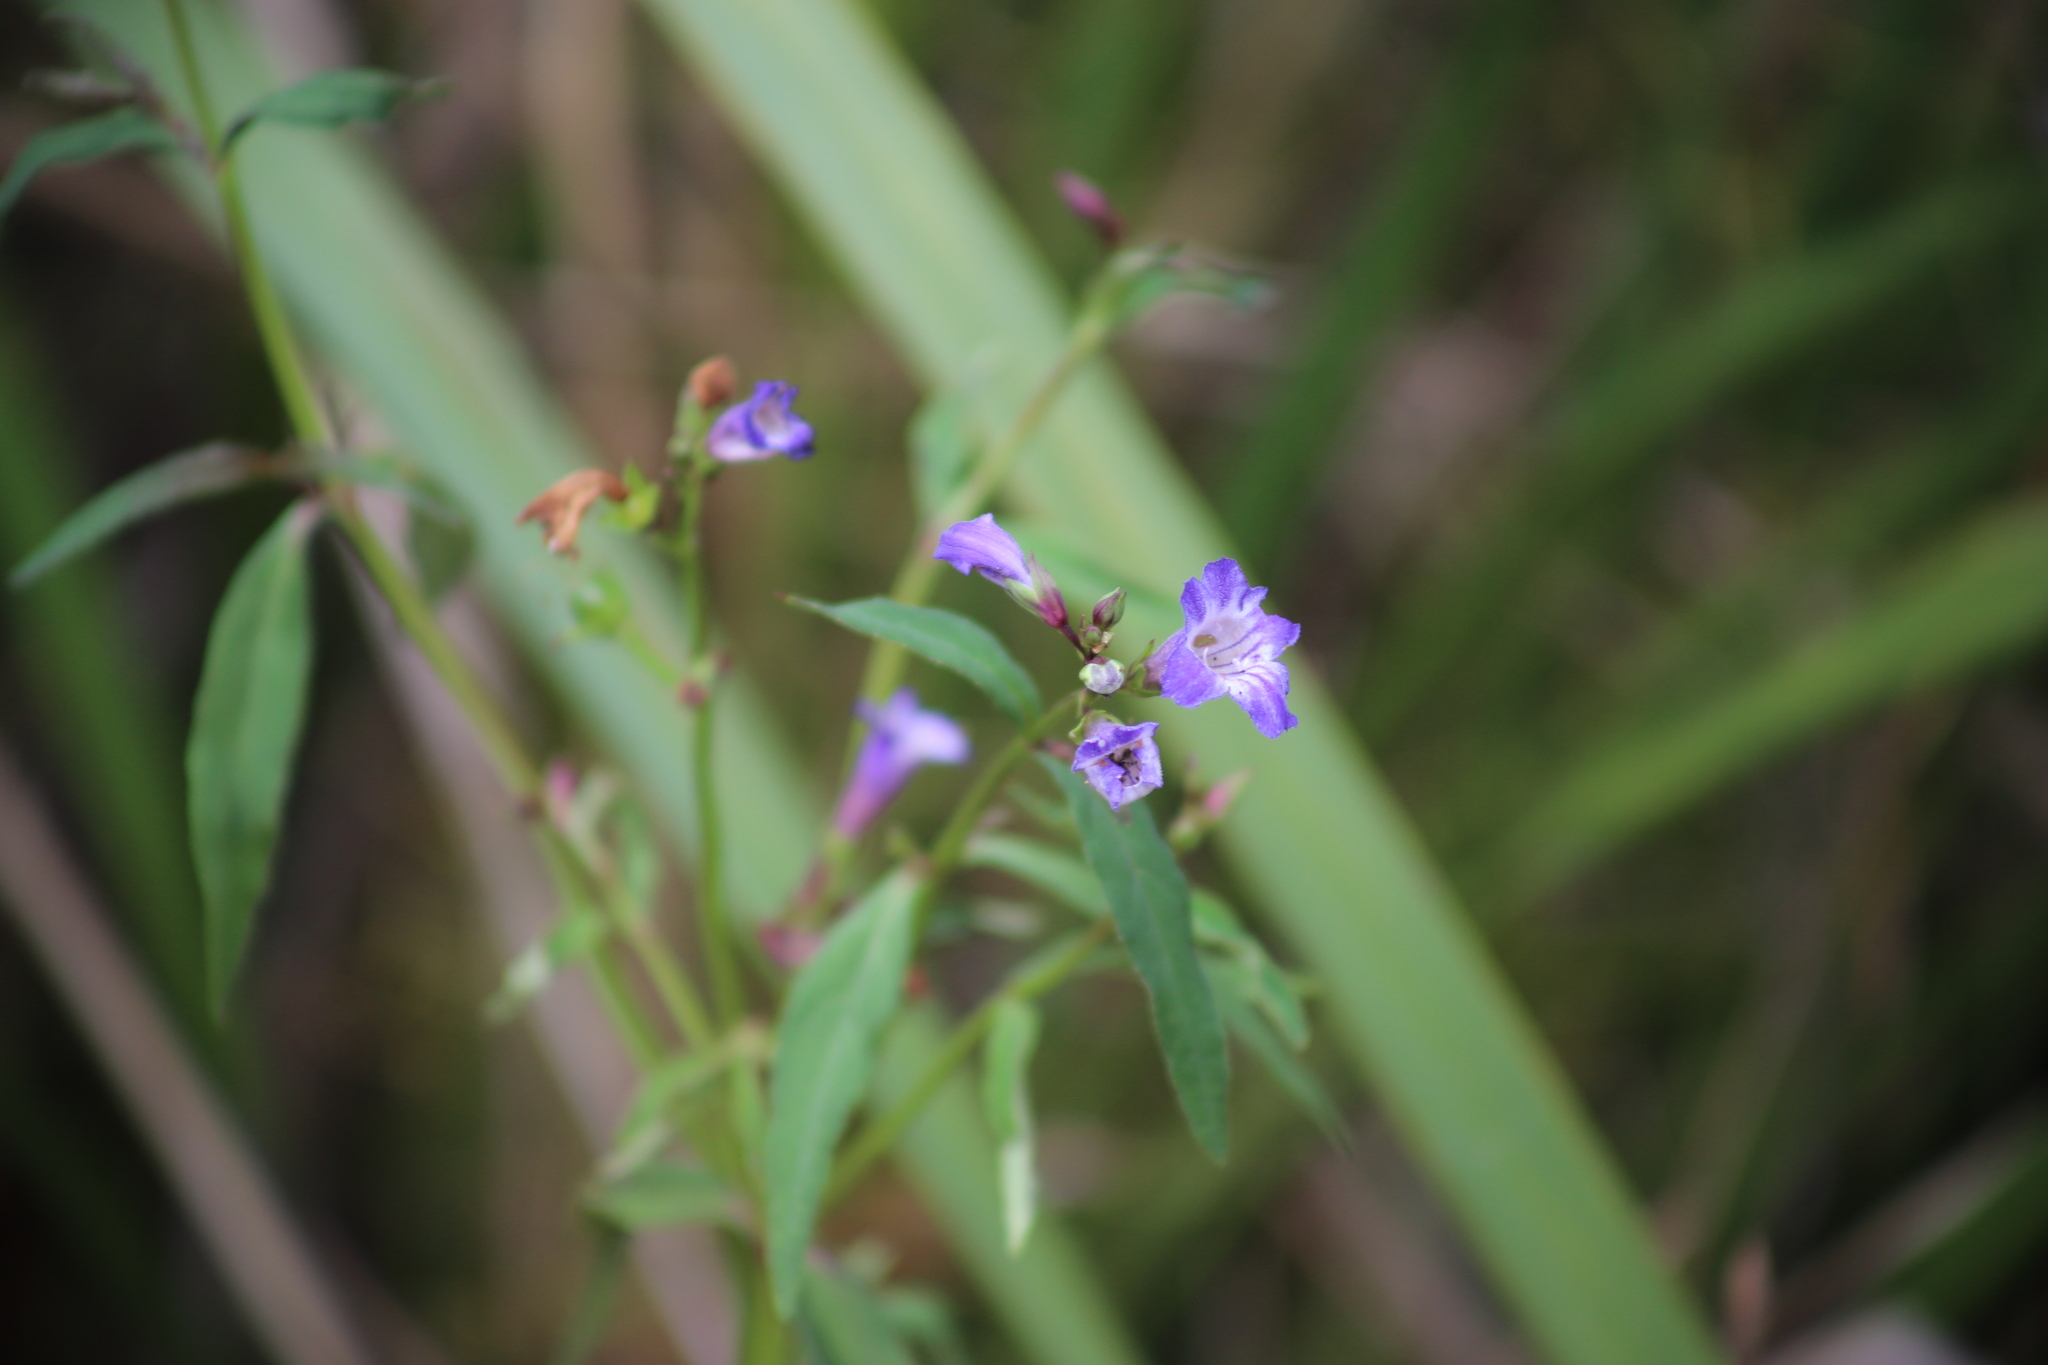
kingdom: Plantae
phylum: Tracheophyta
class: Magnoliopsida
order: Lamiales
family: Linderniaceae
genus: Artanema
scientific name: Artanema fimbriatum
